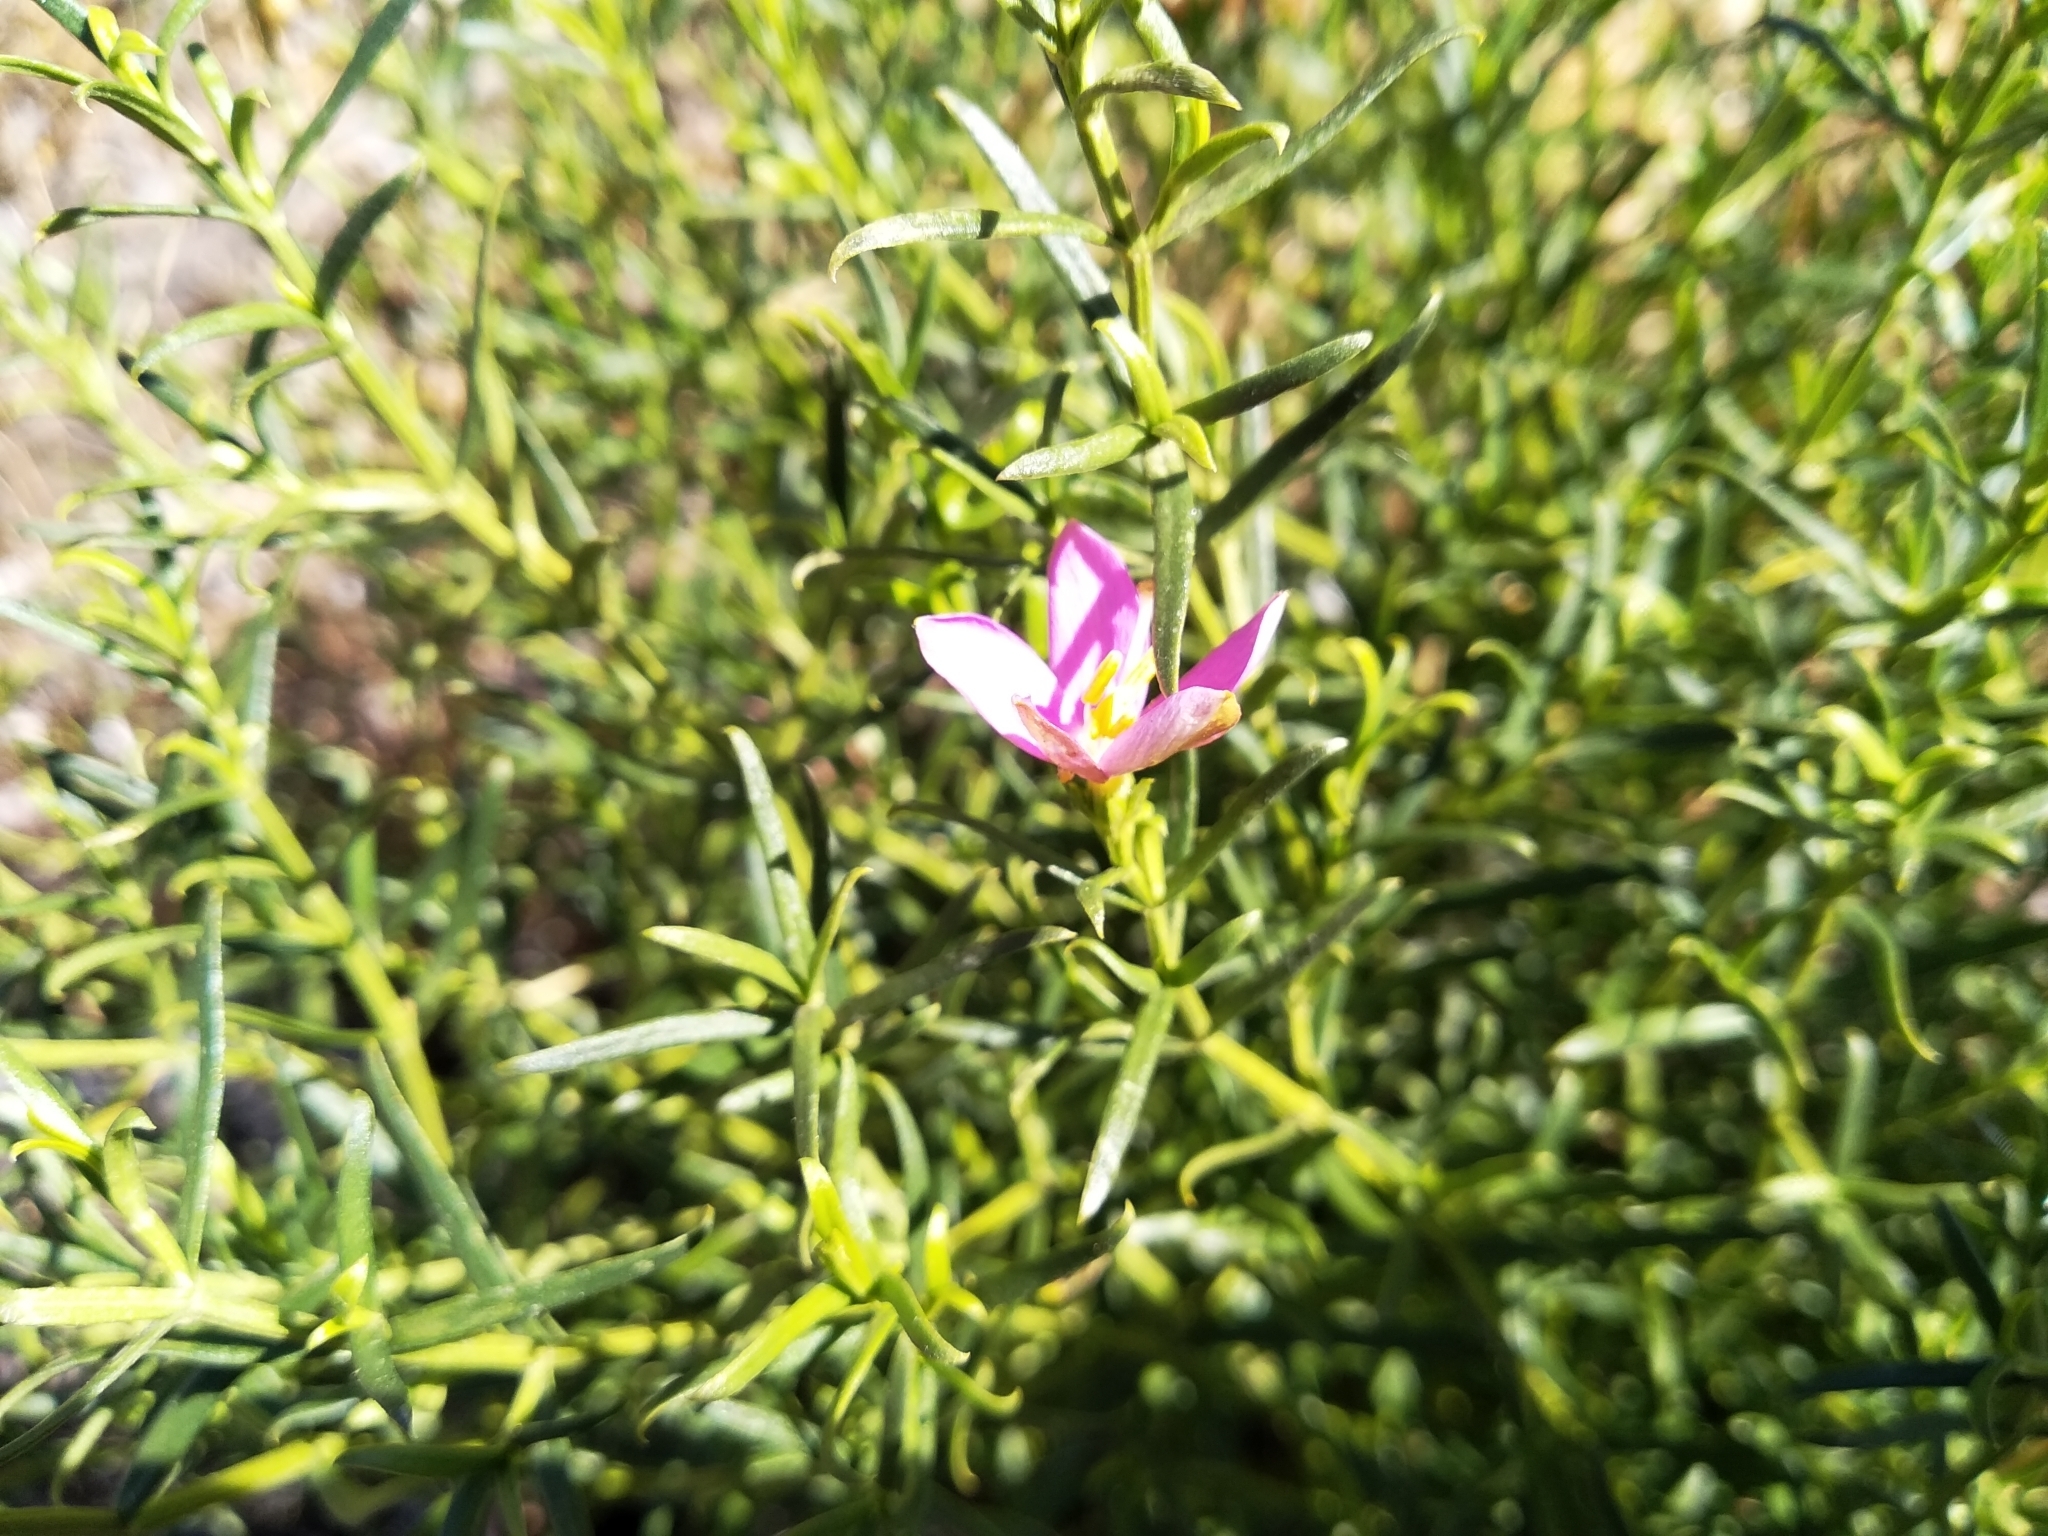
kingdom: Plantae
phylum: Tracheophyta
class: Magnoliopsida
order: Gentianales
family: Gentianaceae
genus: Chironia
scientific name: Chironia baccifera
